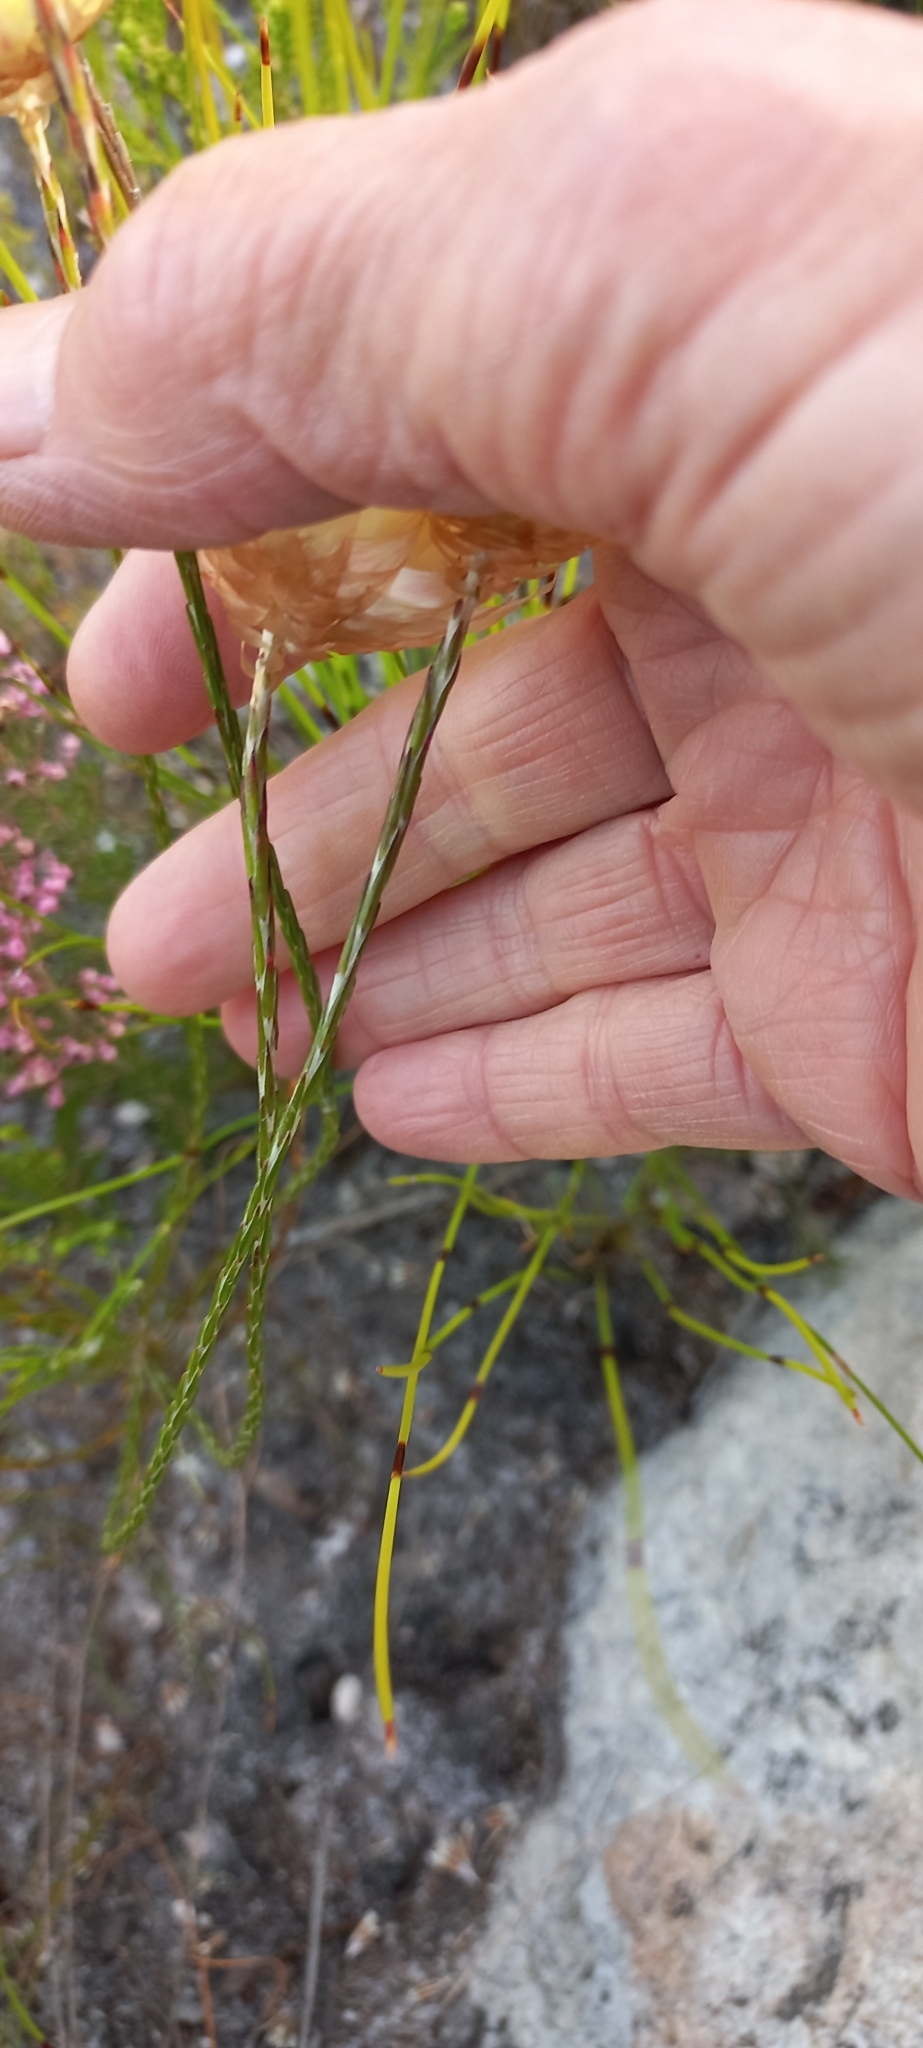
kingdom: Plantae
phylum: Tracheophyta
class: Magnoliopsida
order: Asterales
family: Asteraceae
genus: Edmondia
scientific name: Edmondia sesamoides
